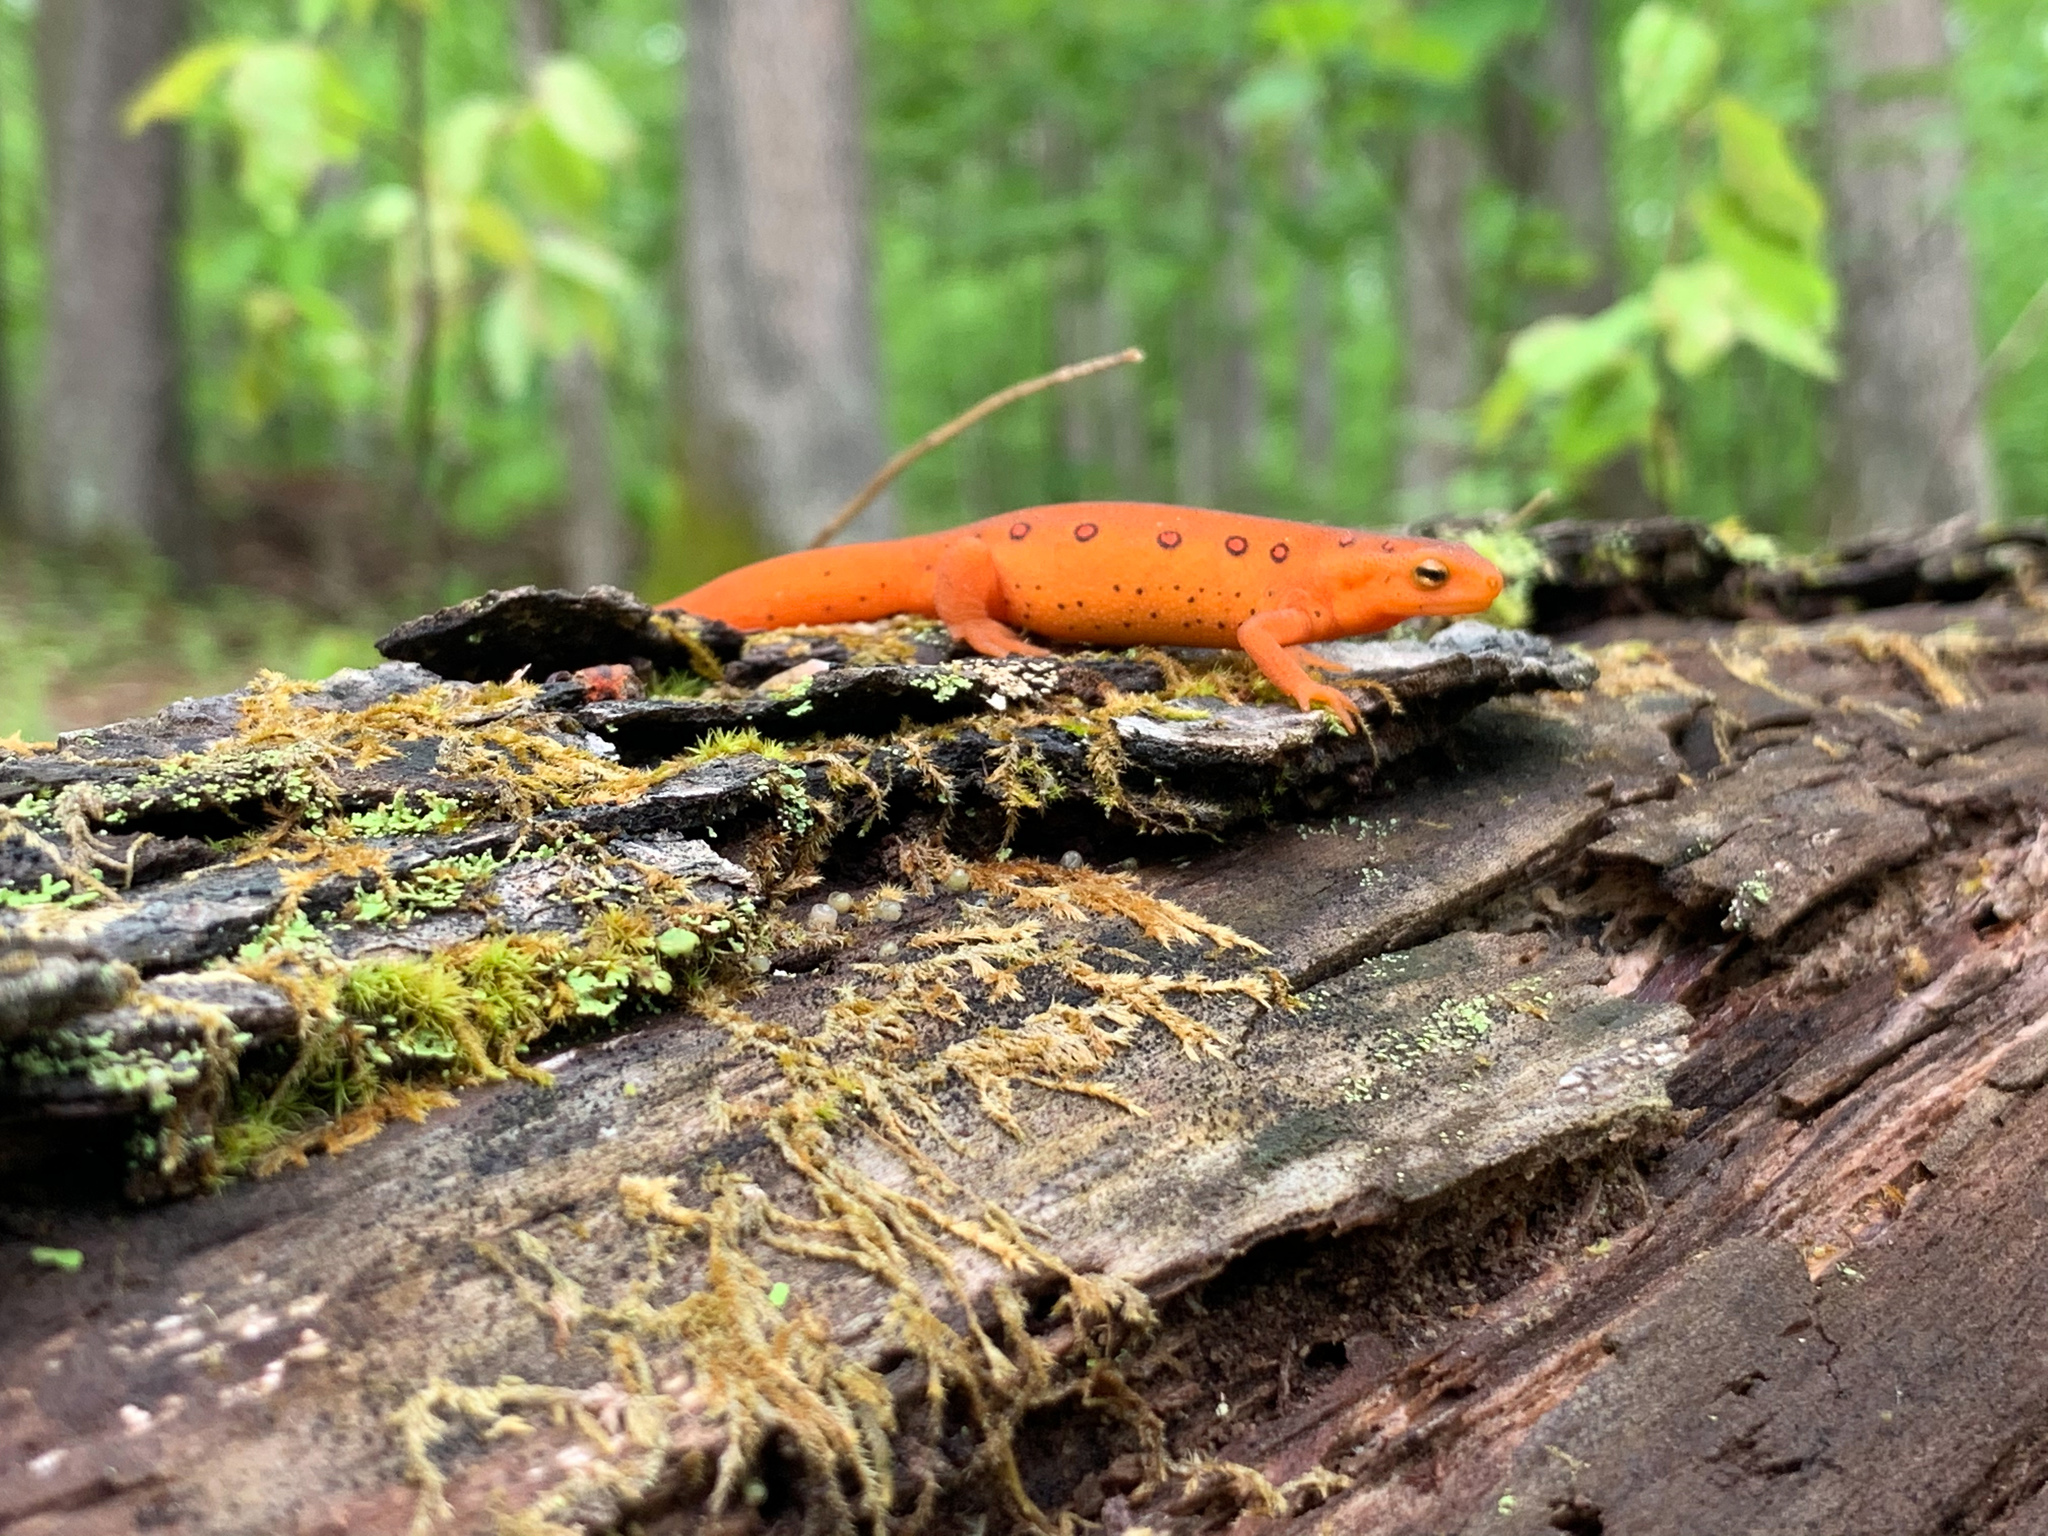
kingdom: Animalia
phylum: Chordata
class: Amphibia
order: Caudata
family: Salamandridae
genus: Notophthalmus
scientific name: Notophthalmus viridescens
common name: Eastern newt
